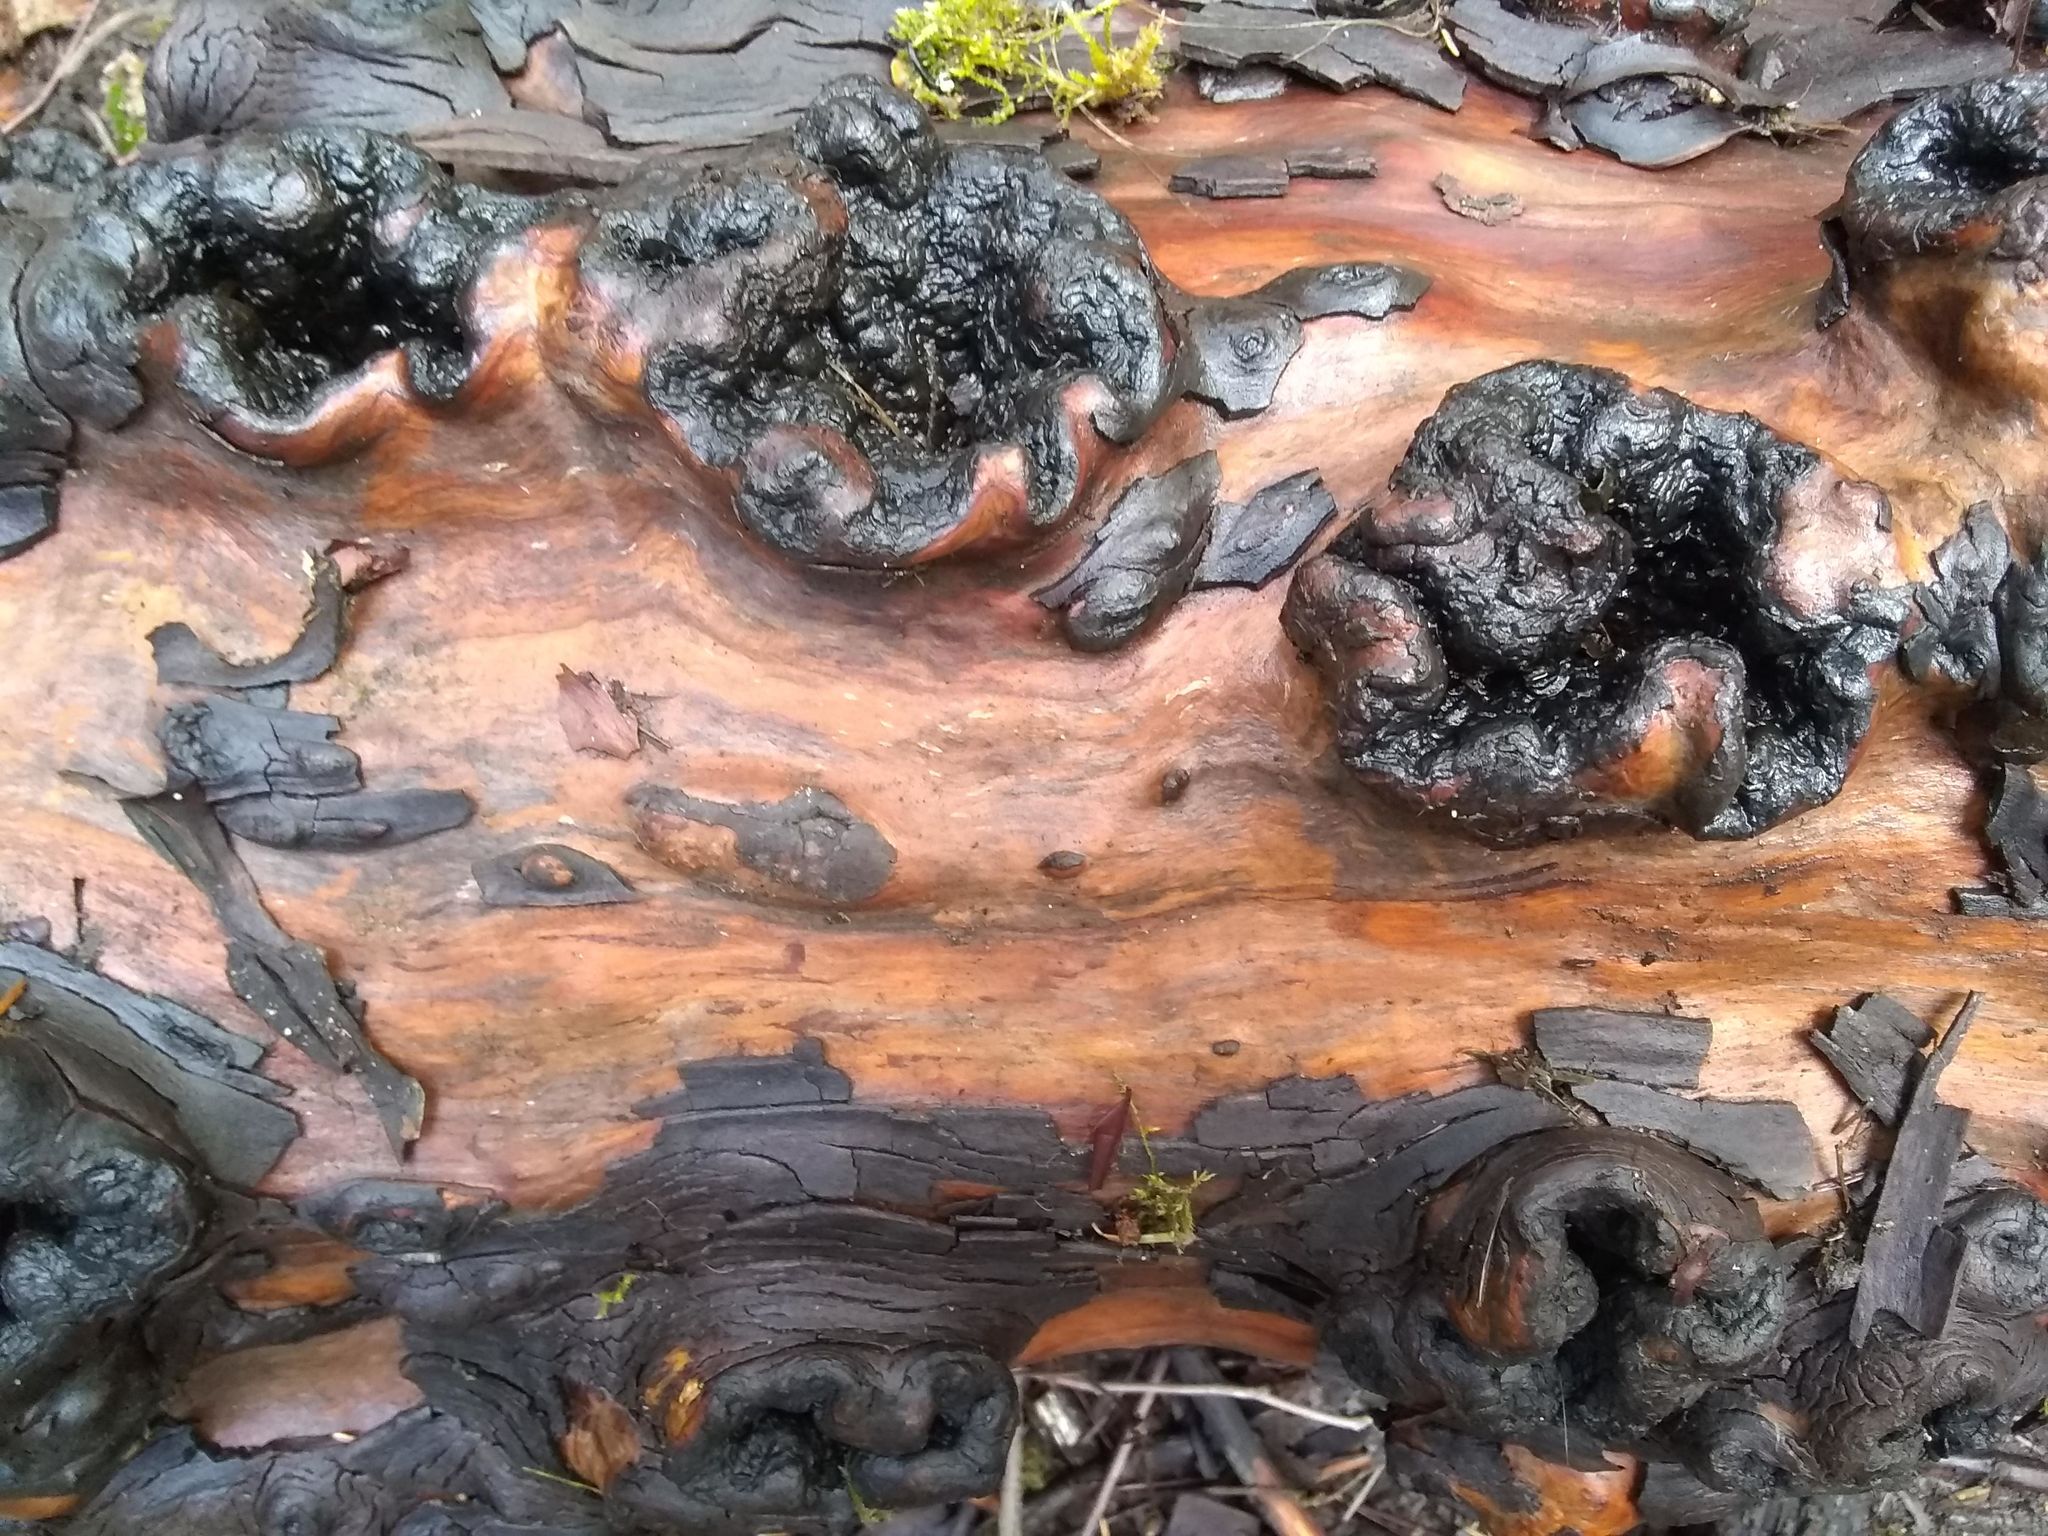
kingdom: Plantae
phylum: Tracheophyta
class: Magnoliopsida
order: Ericales
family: Ericaceae
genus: Arbutus
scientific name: Arbutus menziesii
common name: Pacific madrone
